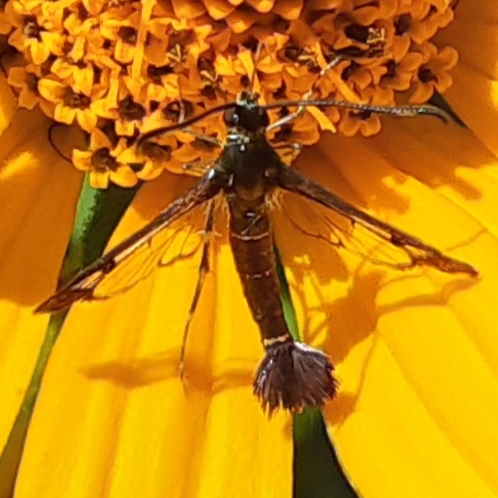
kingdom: Animalia
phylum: Arthropoda
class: Insecta
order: Lepidoptera
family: Sesiidae
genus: Carmenta
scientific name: Carmenta ithacae
